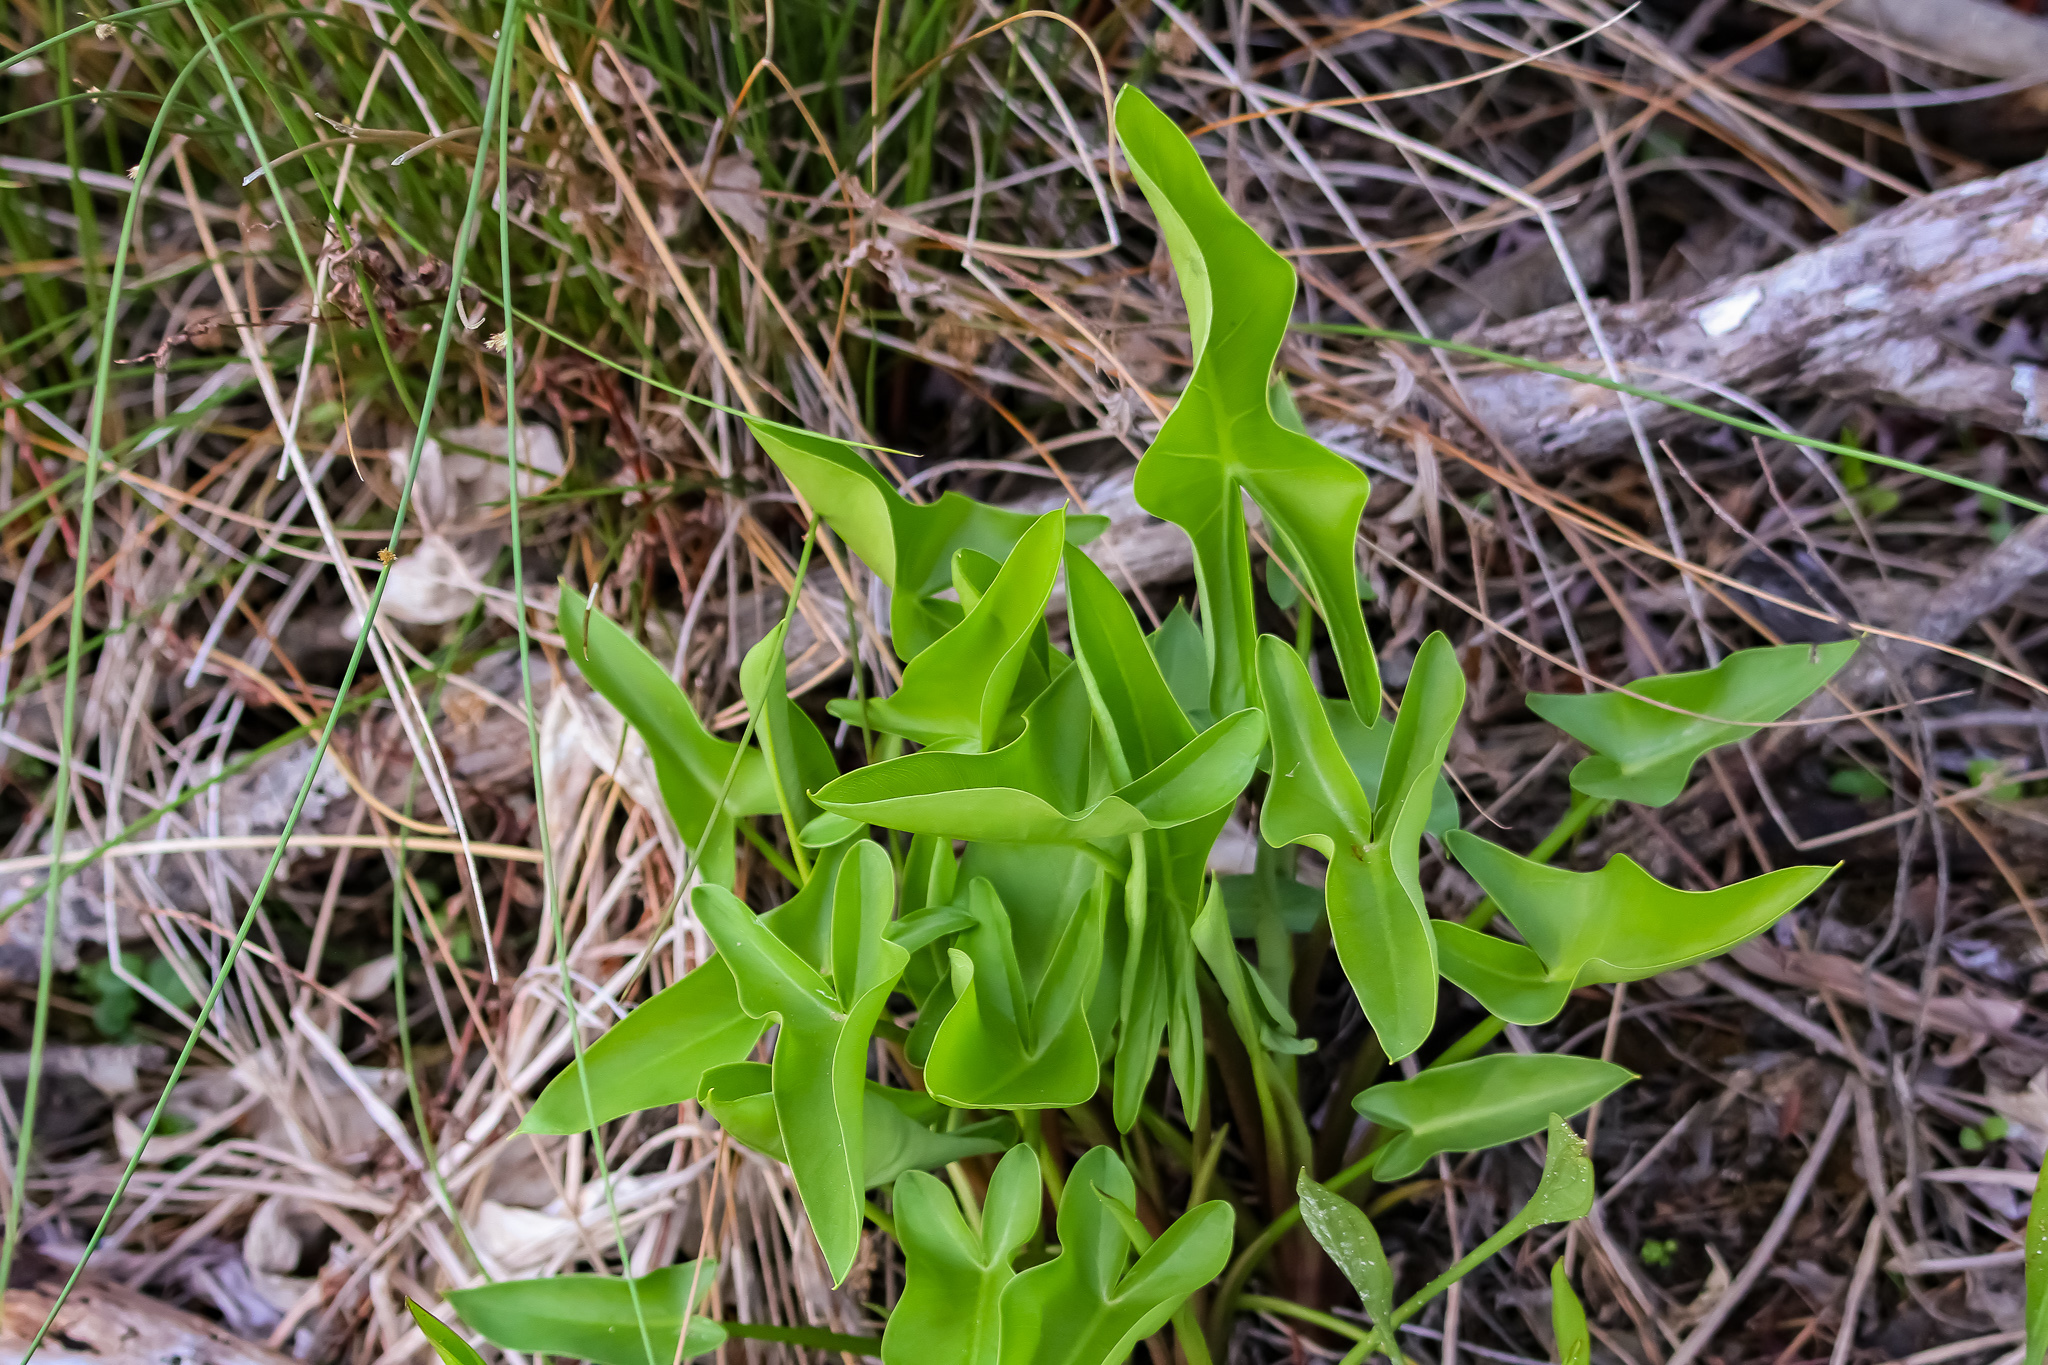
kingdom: Plantae
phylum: Tracheophyta
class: Liliopsida
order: Alismatales
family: Araceae
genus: Peltandra
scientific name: Peltandra virginica
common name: Arrow arum
